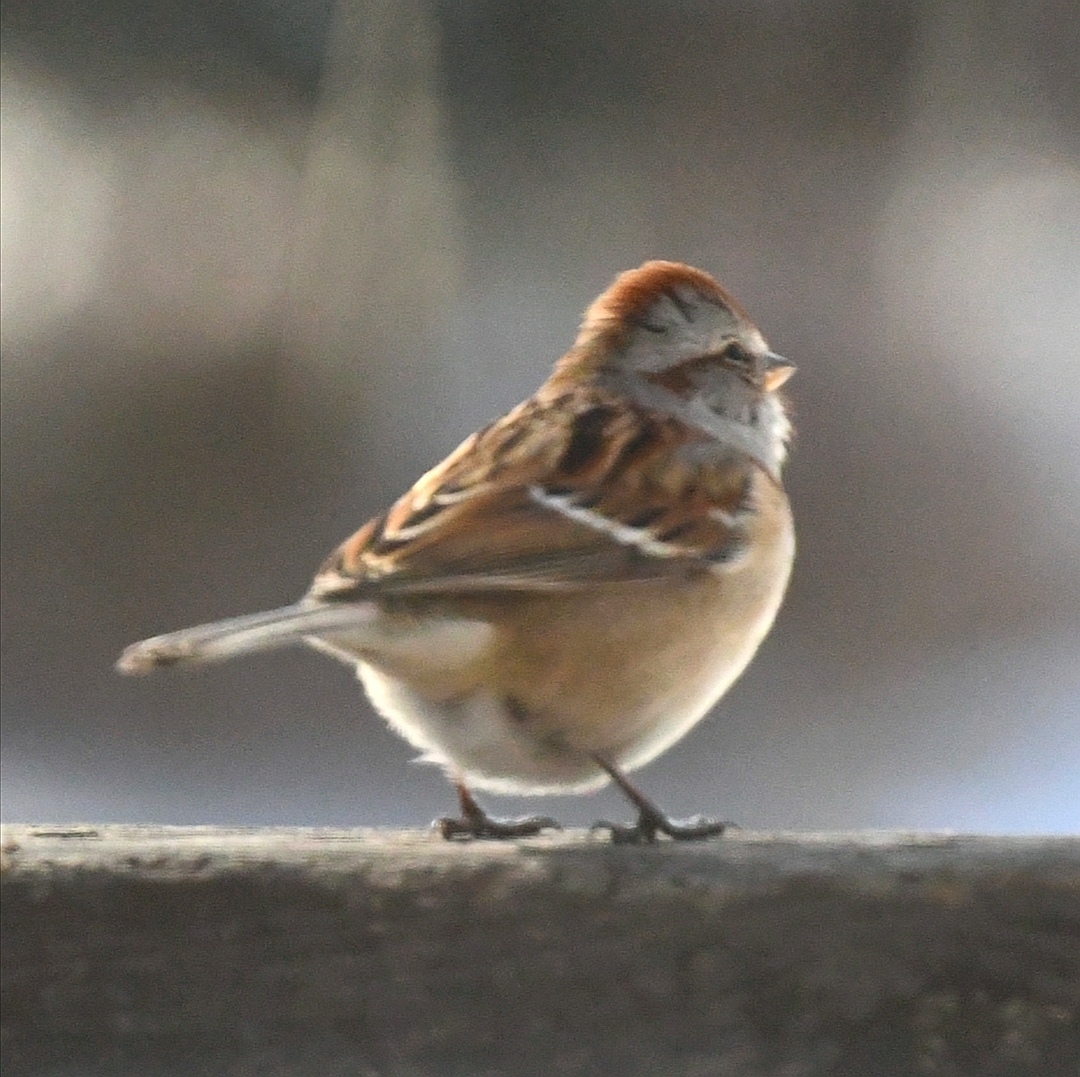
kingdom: Animalia
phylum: Chordata
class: Aves
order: Passeriformes
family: Passerellidae
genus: Spizelloides
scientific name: Spizelloides arborea
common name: American tree sparrow
